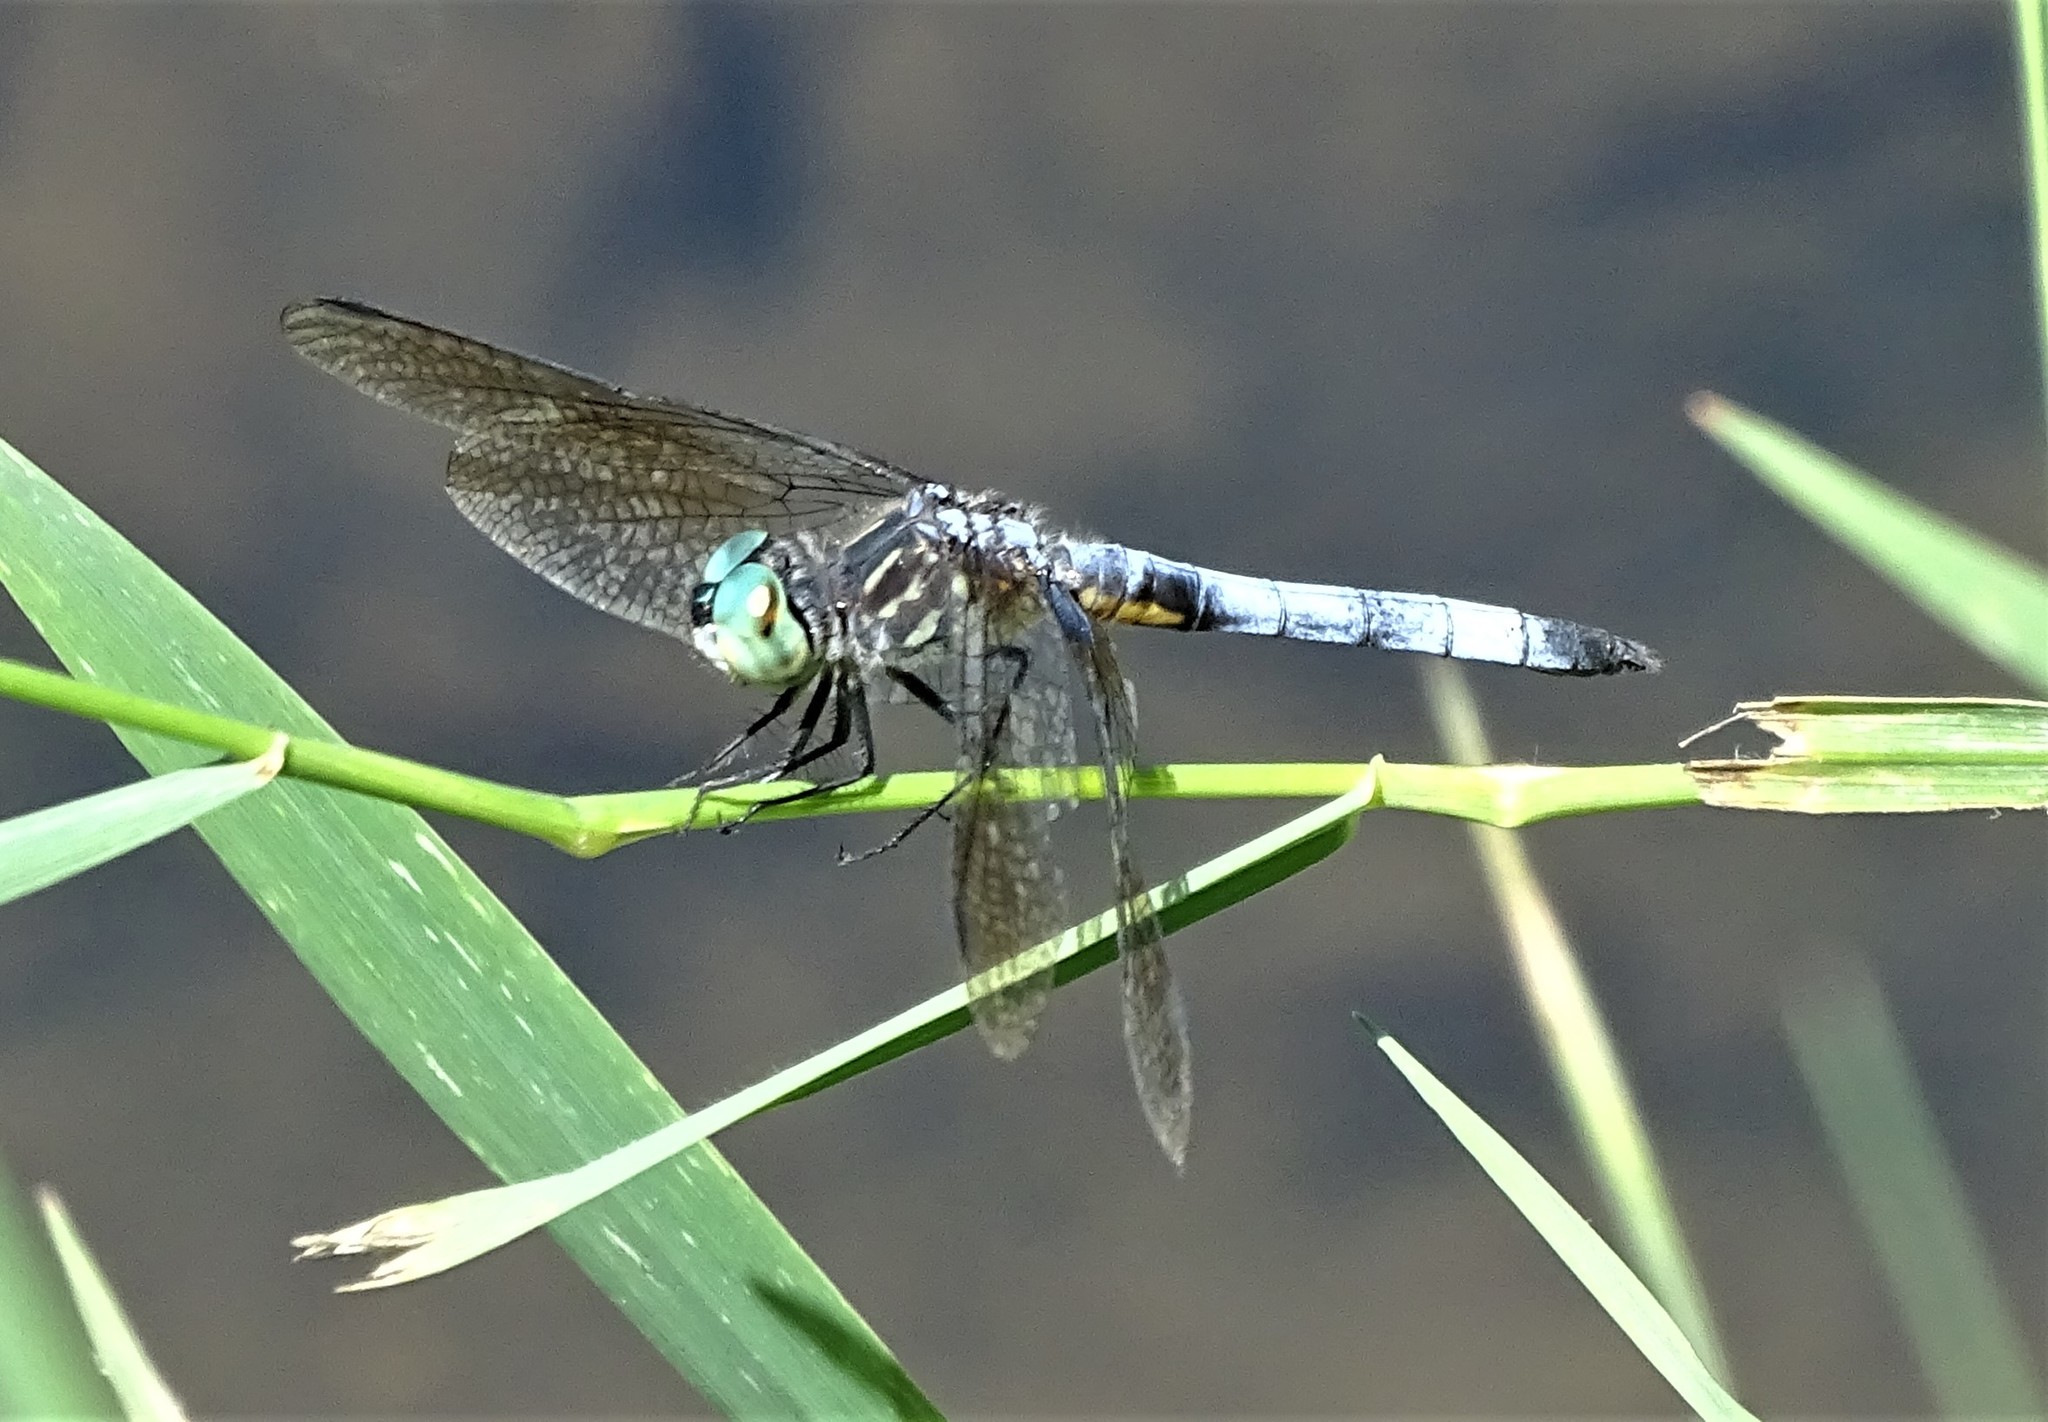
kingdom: Animalia
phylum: Arthropoda
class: Insecta
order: Odonata
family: Libellulidae
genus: Pachydiplax
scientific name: Pachydiplax longipennis
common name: Blue dasher
